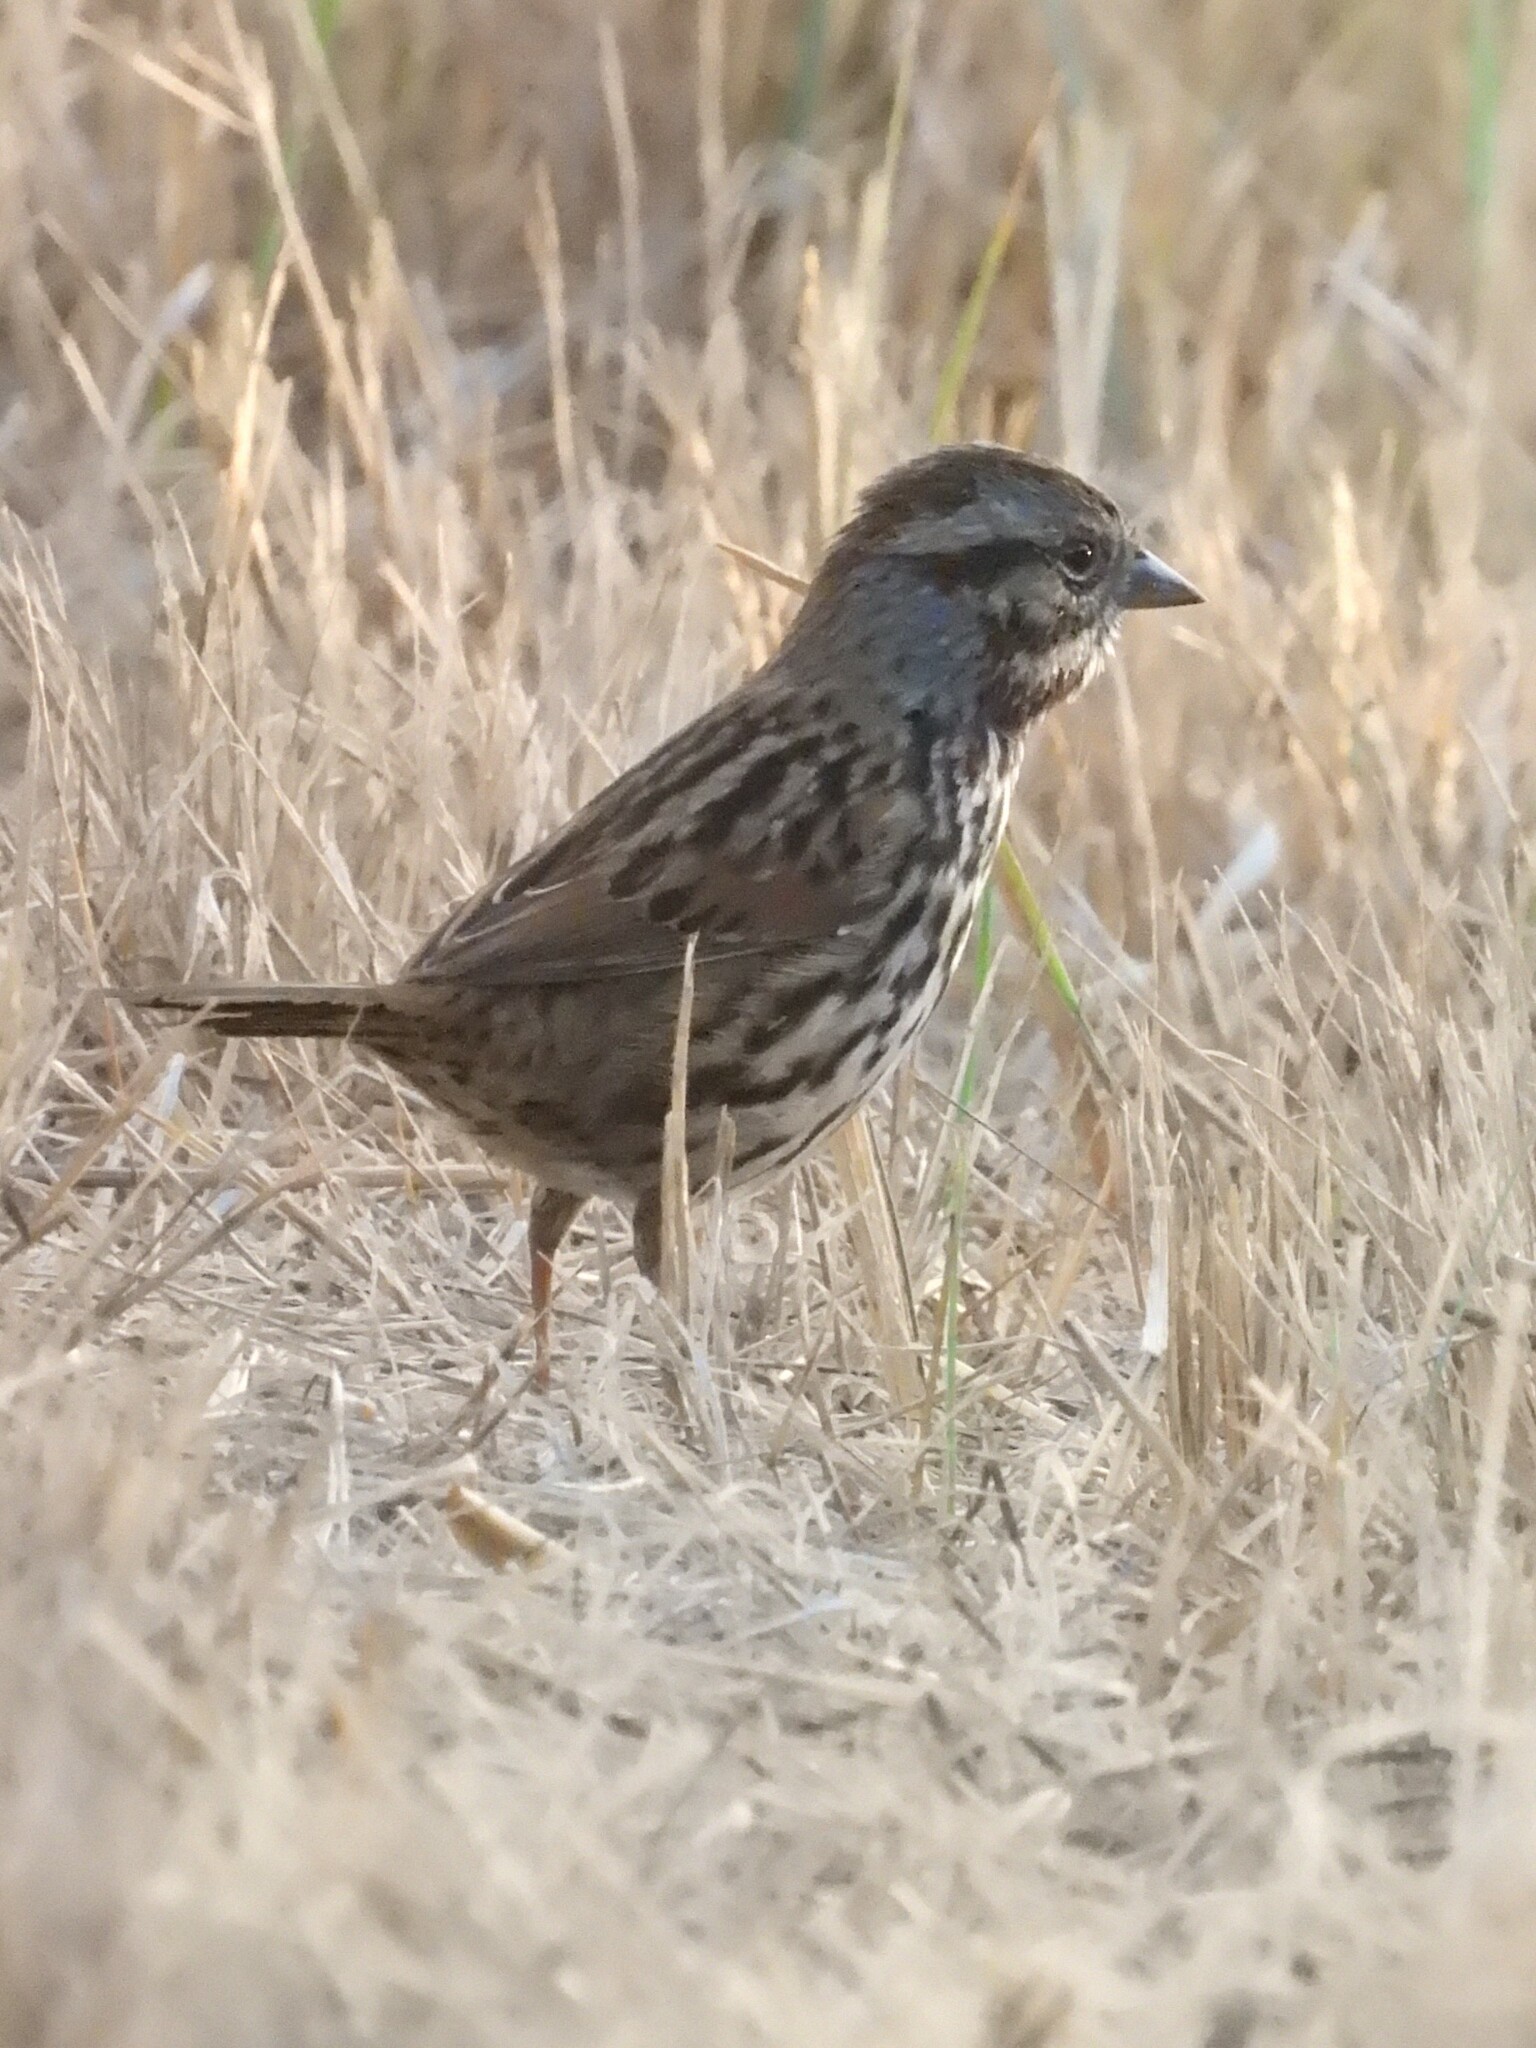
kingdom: Animalia
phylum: Chordata
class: Aves
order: Passeriformes
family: Passerellidae
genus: Melospiza
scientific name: Melospiza melodia
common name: Song sparrow
